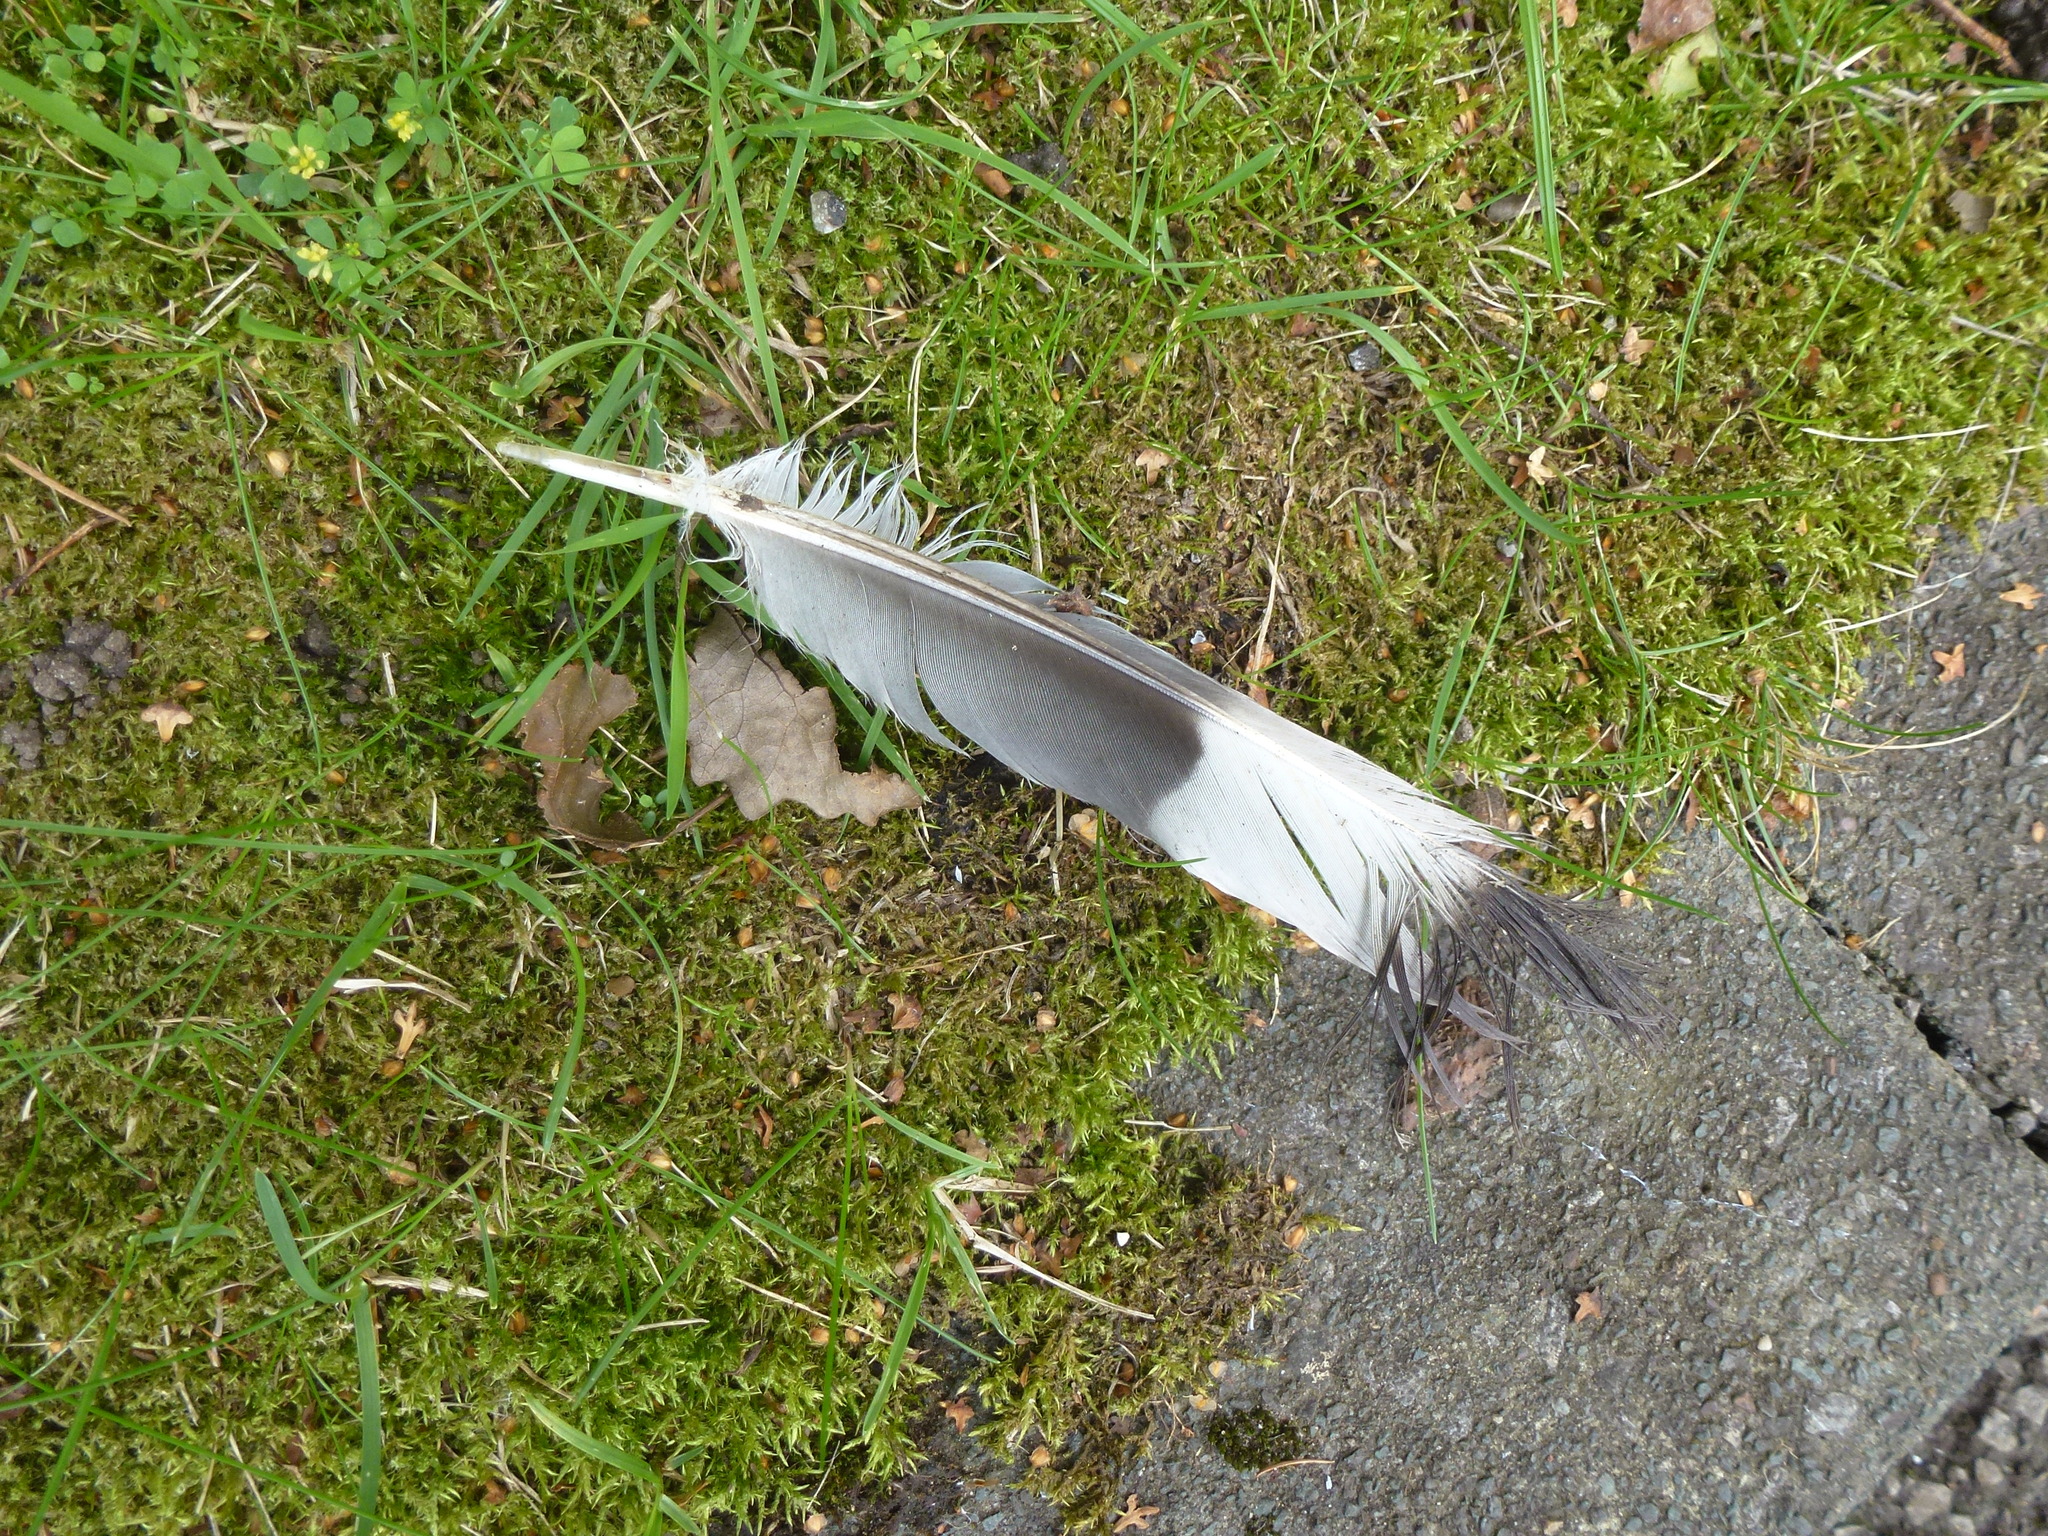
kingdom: Animalia
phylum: Chordata
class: Aves
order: Columbiformes
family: Columbidae
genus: Columba
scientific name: Columba palumbus
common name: Common wood pigeon
